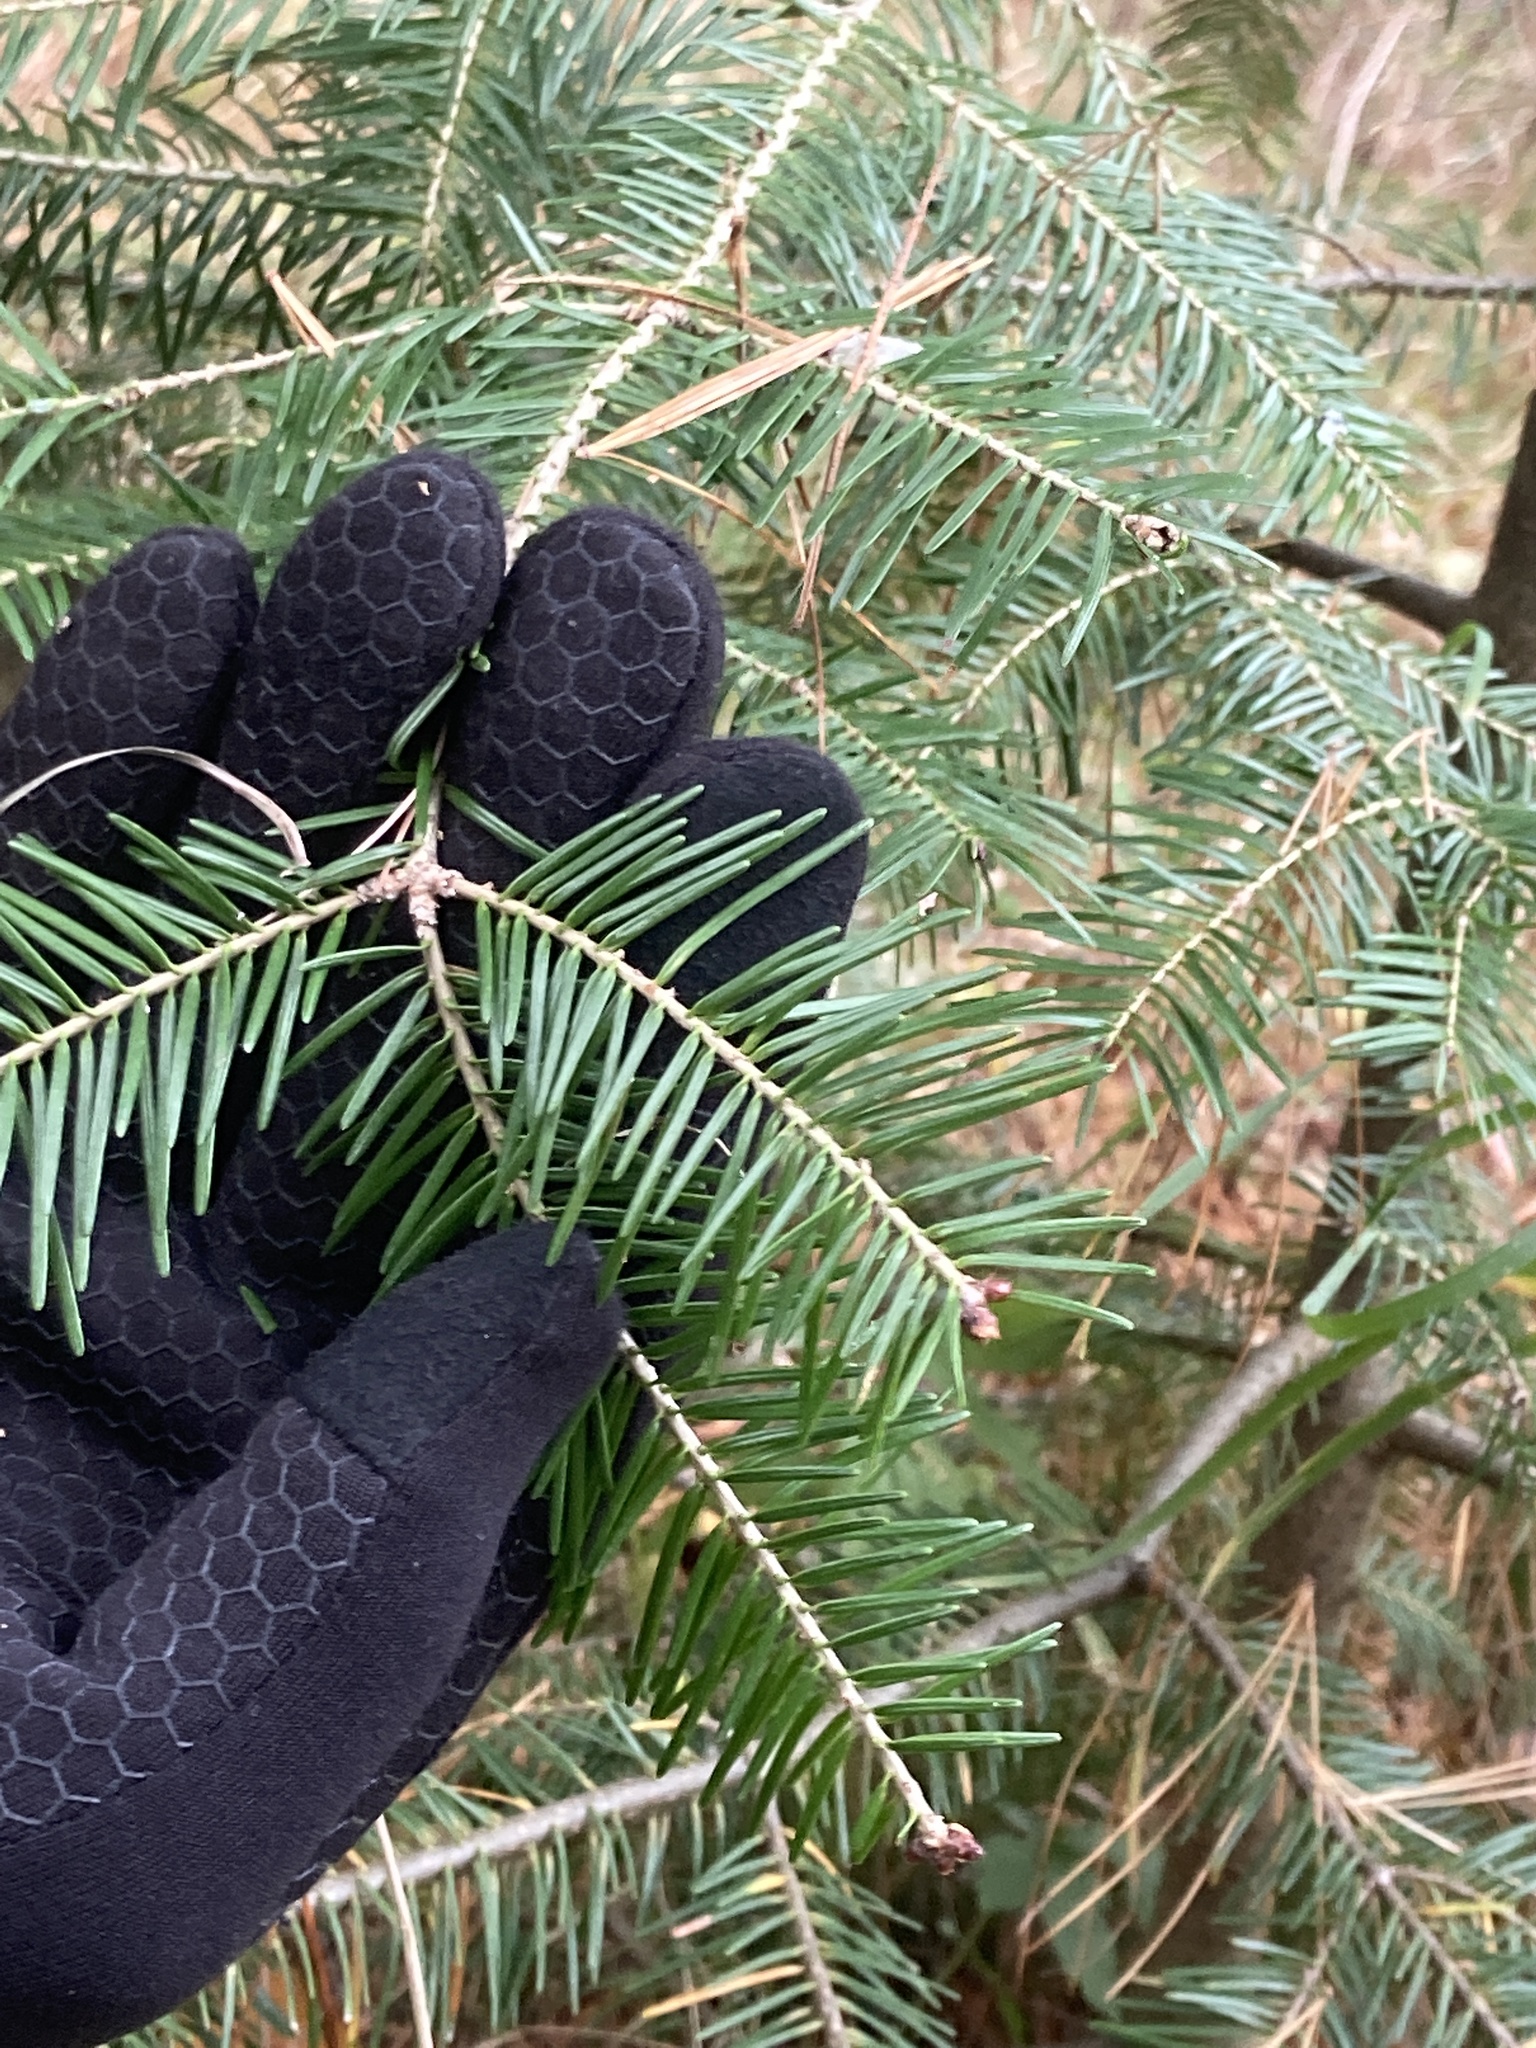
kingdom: Plantae
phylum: Tracheophyta
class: Pinopsida
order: Pinales
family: Pinaceae
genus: Abies
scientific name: Abies balsamea
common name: Balsam fir
